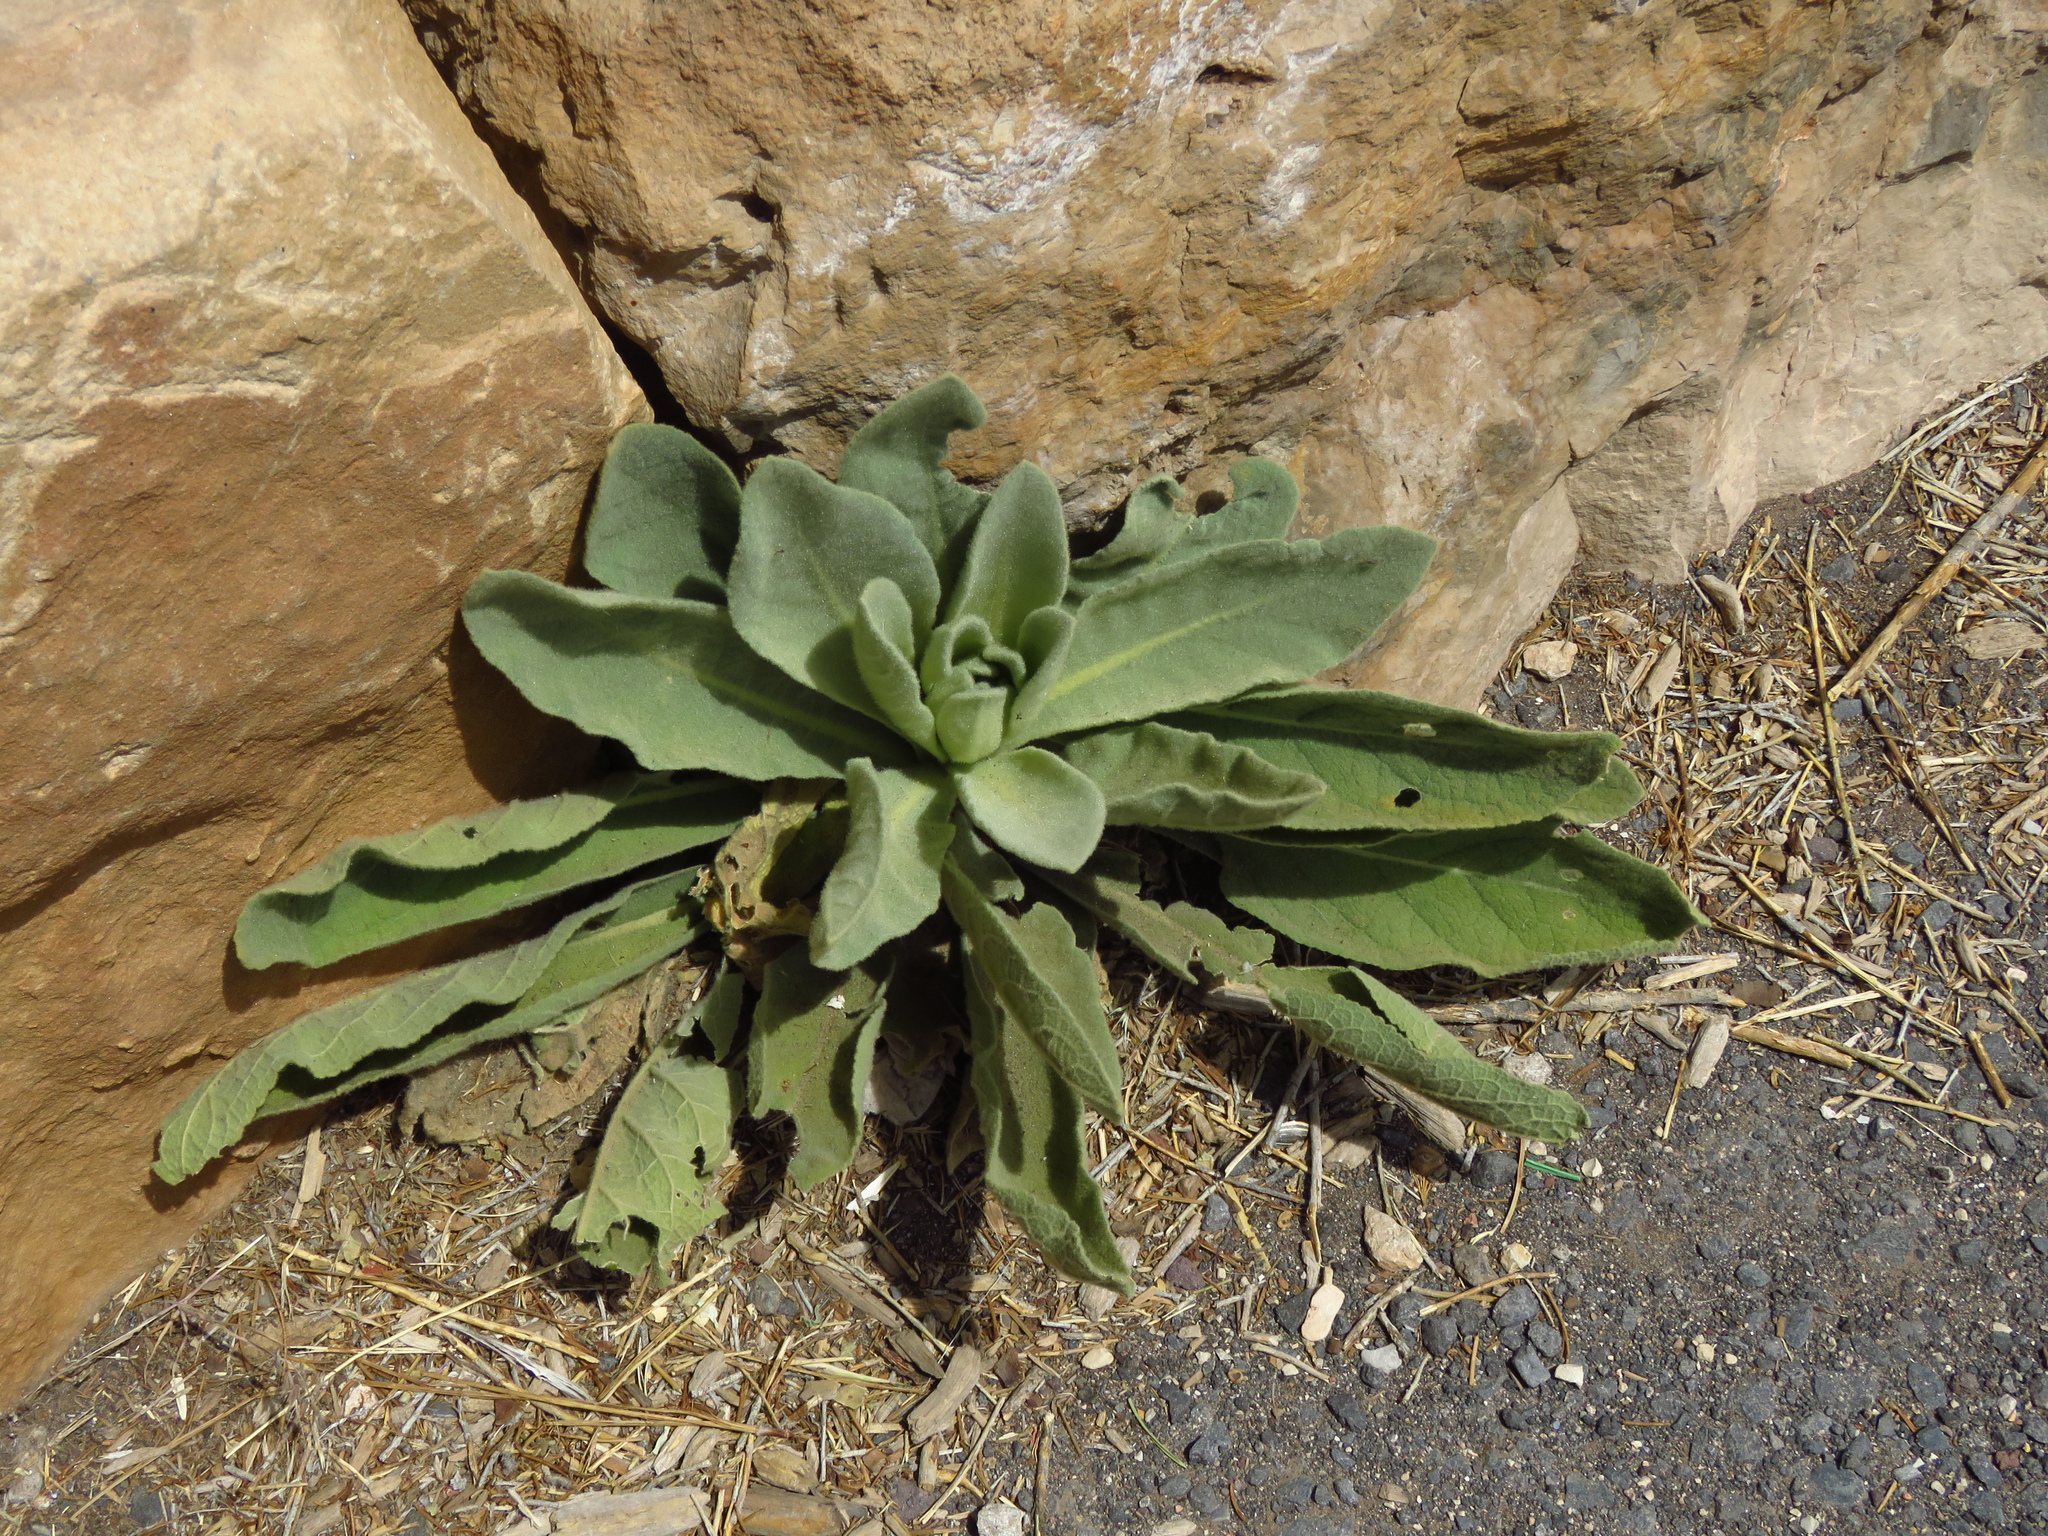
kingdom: Plantae
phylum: Tracheophyta
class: Magnoliopsida
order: Lamiales
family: Scrophulariaceae
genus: Verbascum
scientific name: Verbascum thapsus
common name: Common mullein
